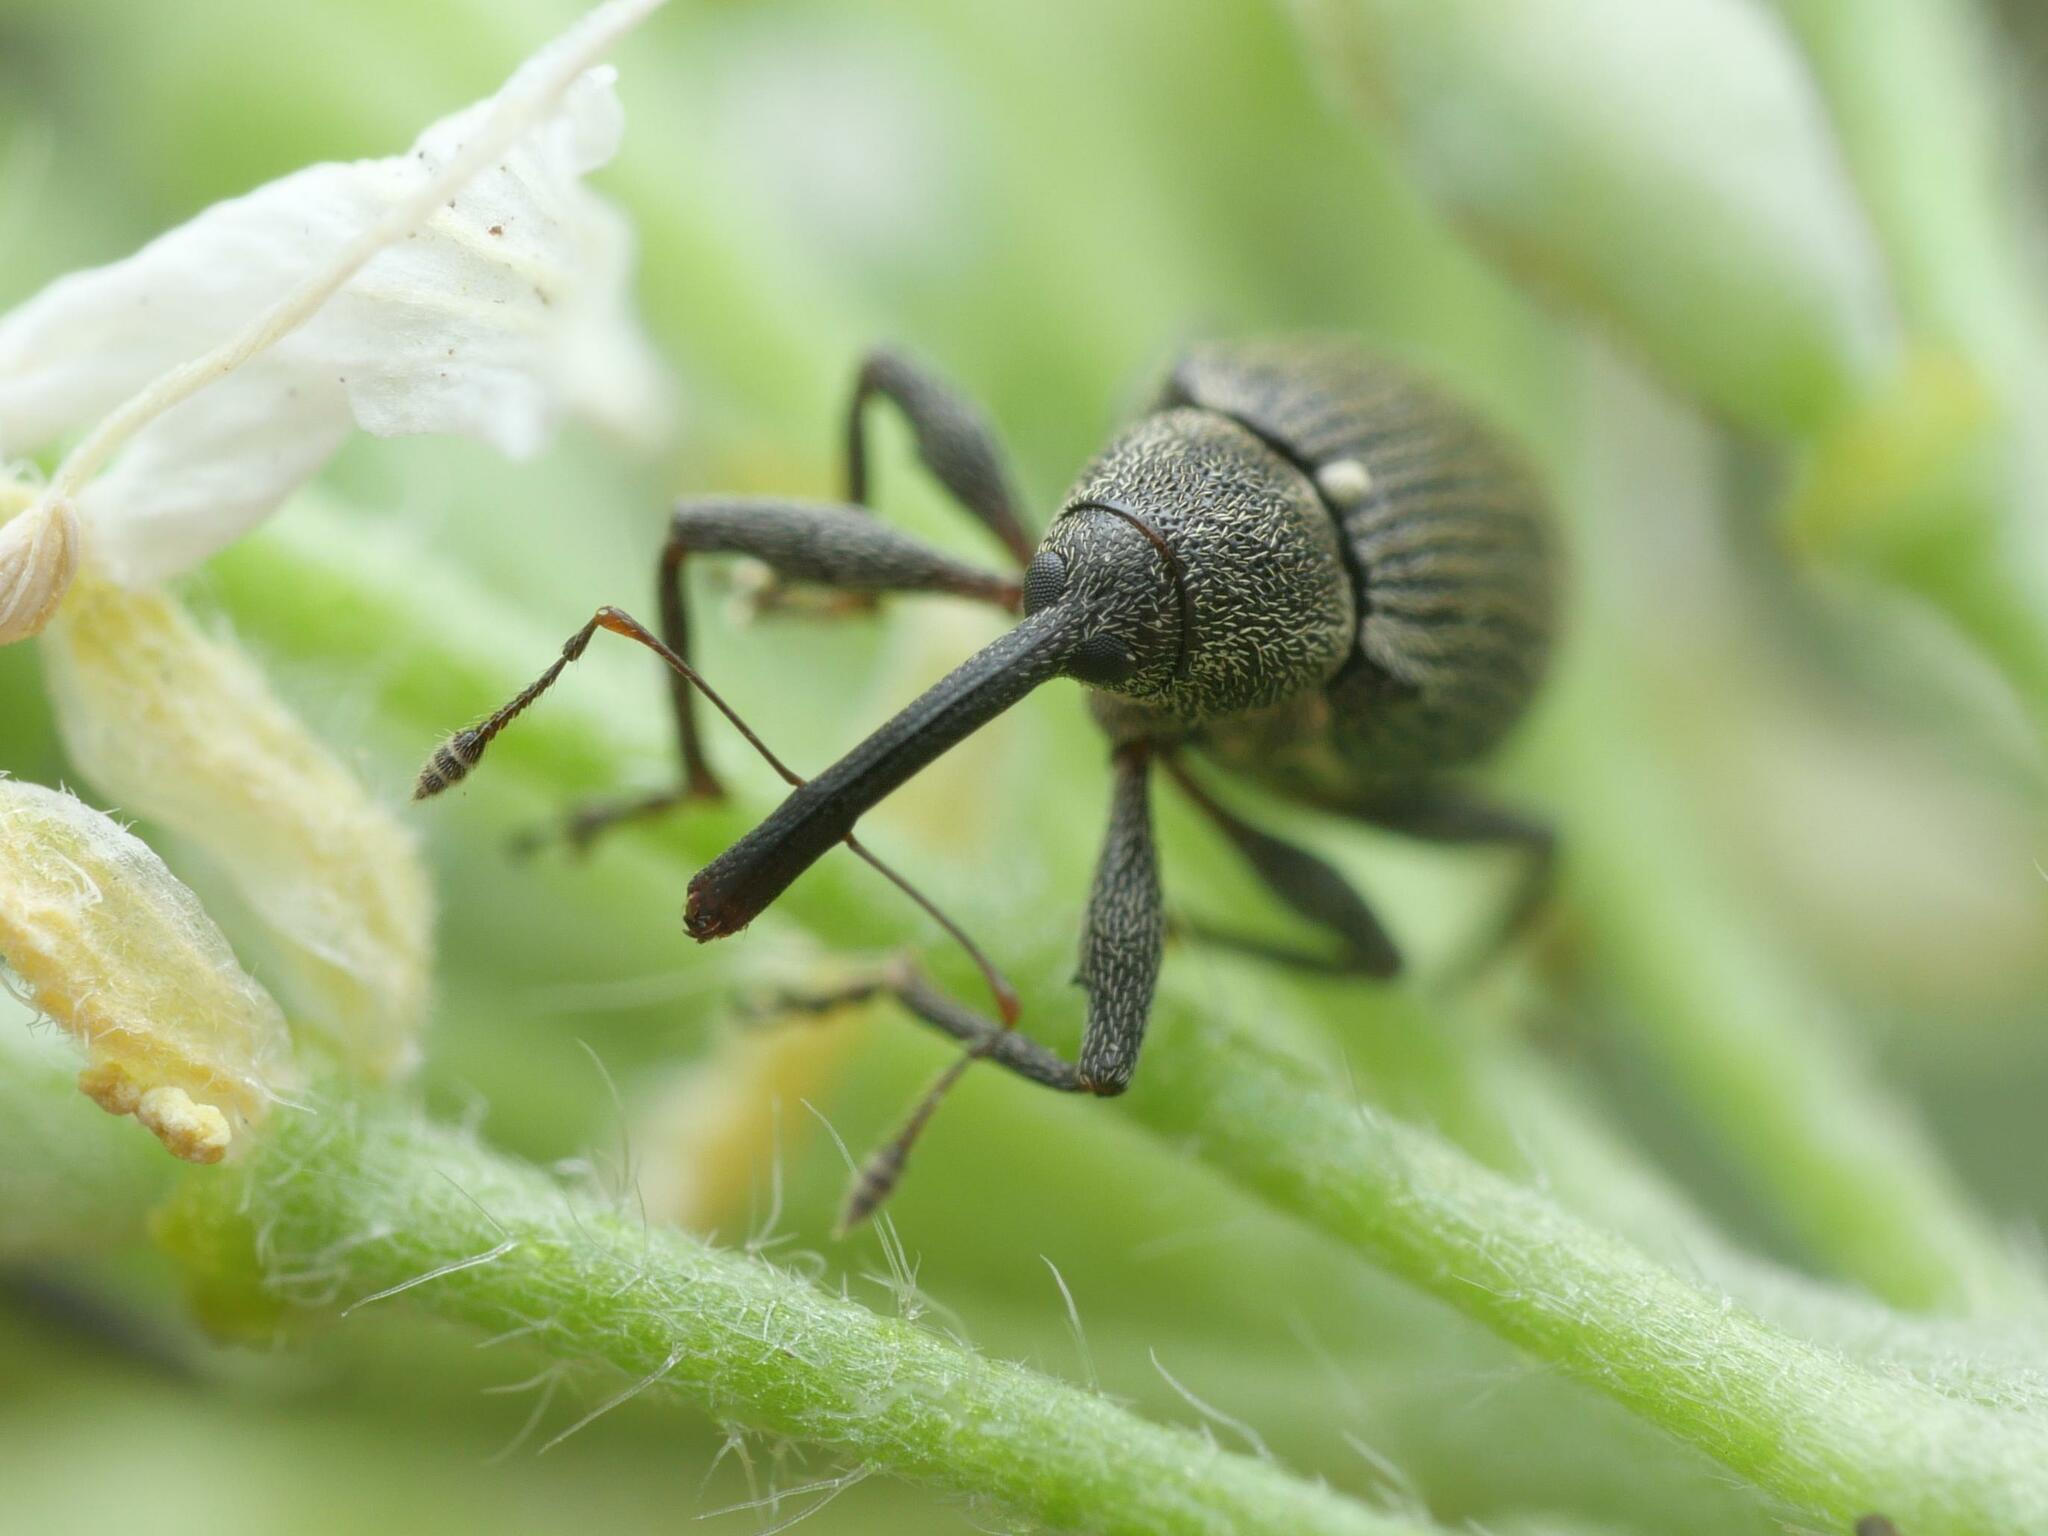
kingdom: Animalia
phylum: Arthropoda
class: Insecta
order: Coleoptera
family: Curculionidae
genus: Anthonomus
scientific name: Anthonomus rubi
